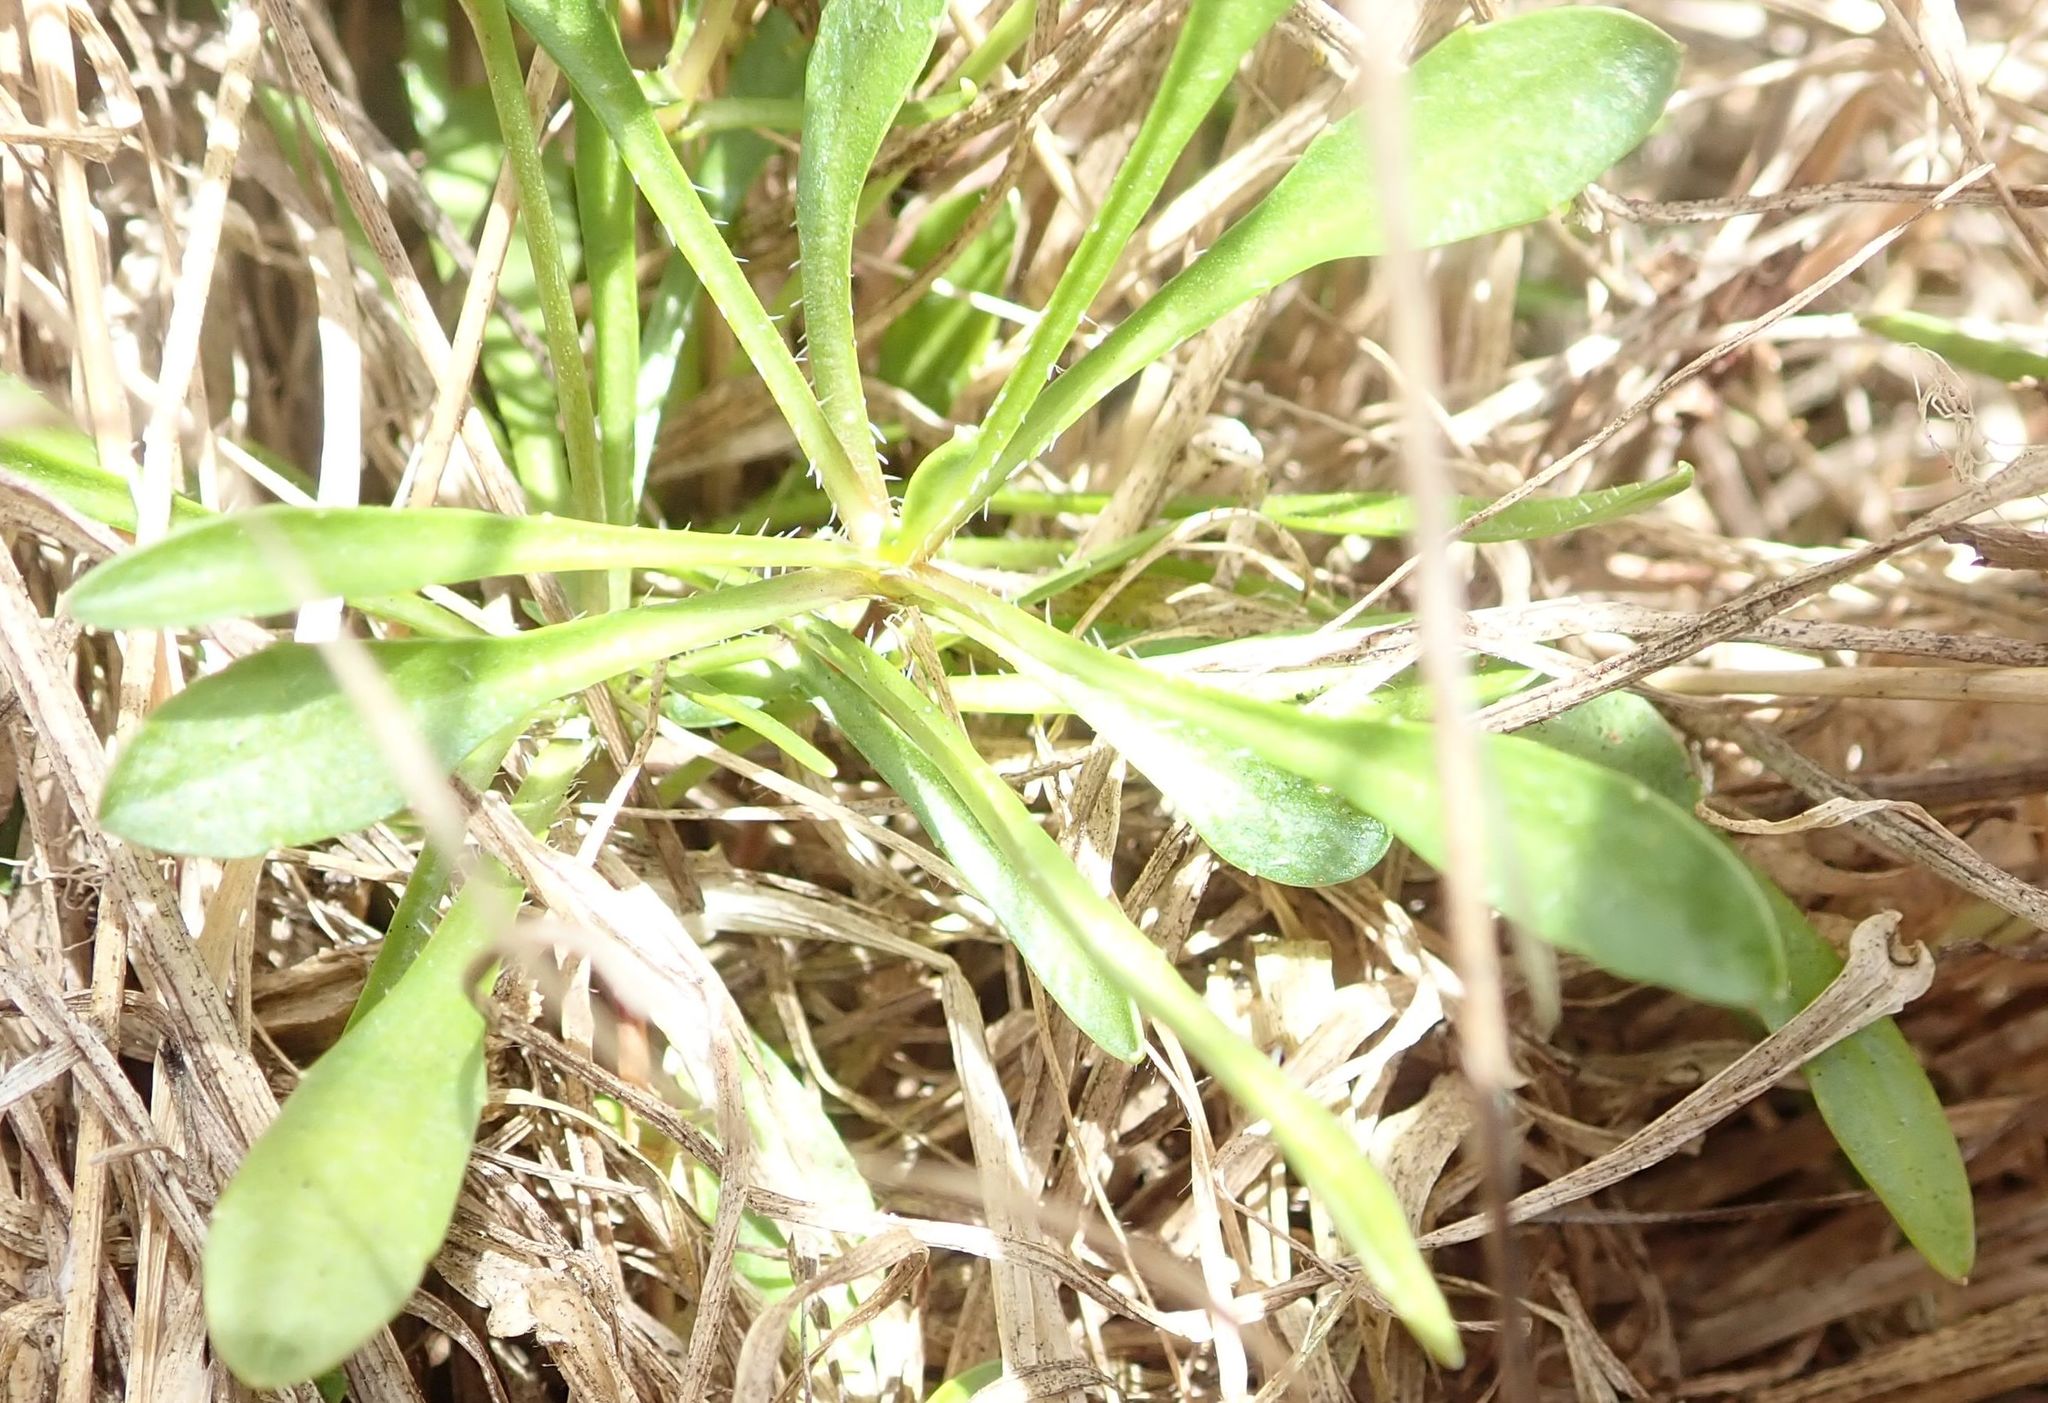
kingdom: Plantae
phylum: Tracheophyta
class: Magnoliopsida
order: Asterales
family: Campanulaceae
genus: Wahlenbergia
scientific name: Wahlenbergia albomarginata
